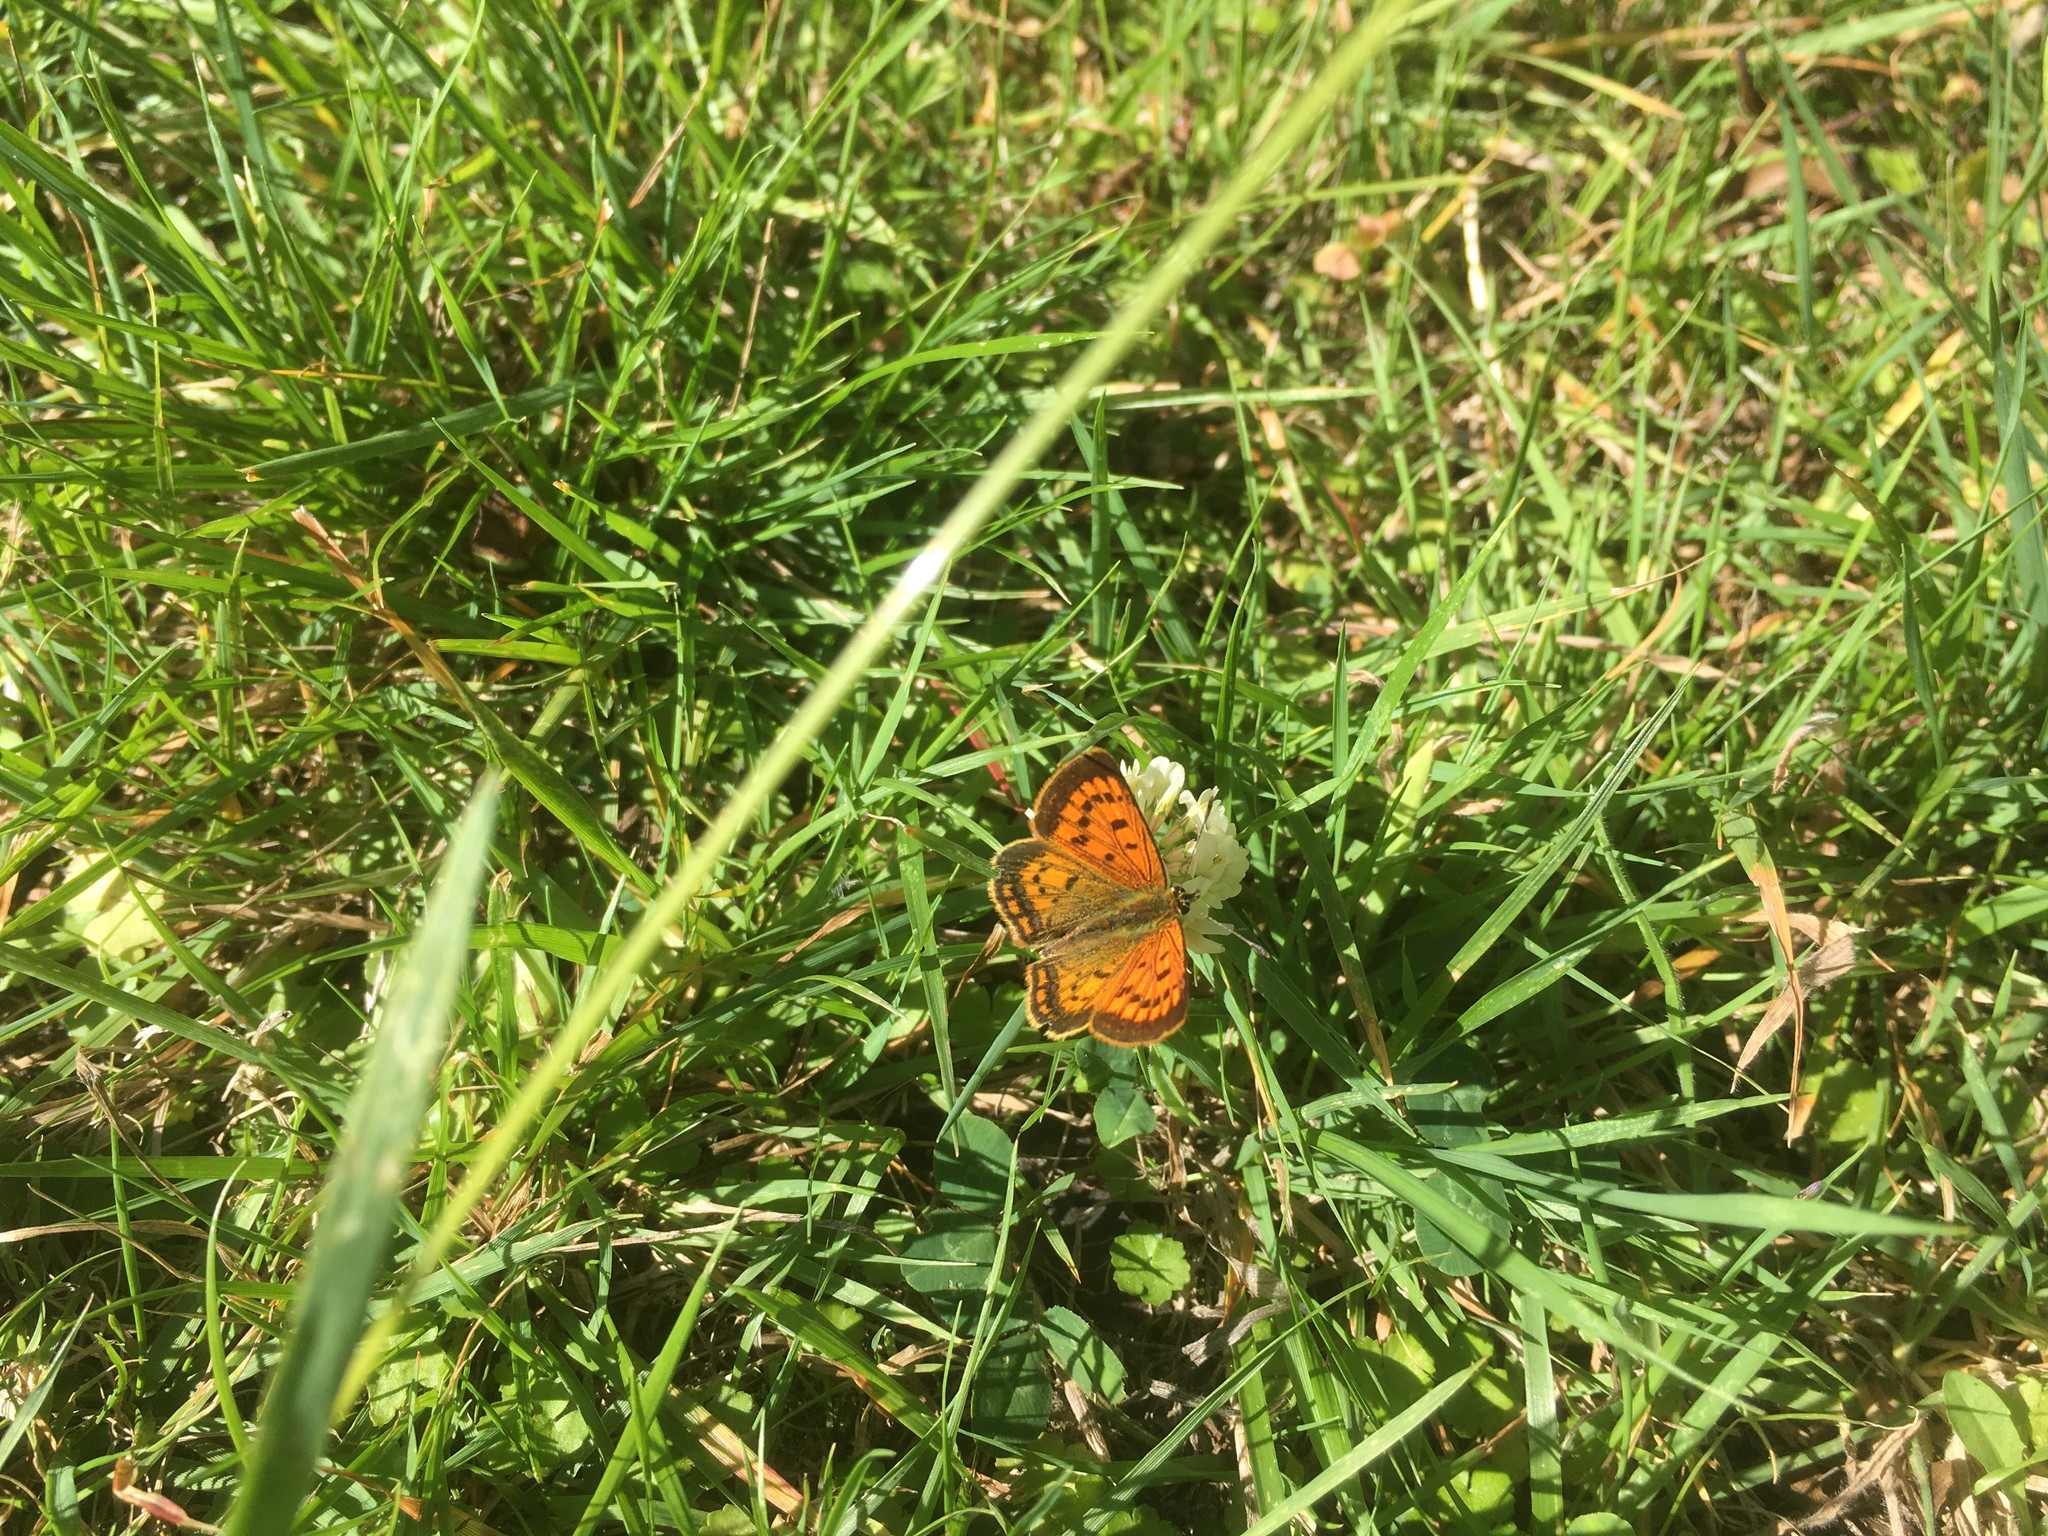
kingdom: Plantae
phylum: Tracheophyta
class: Magnoliopsida
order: Fabales
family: Fabaceae
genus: Trifolium
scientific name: Trifolium repens
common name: White clover
